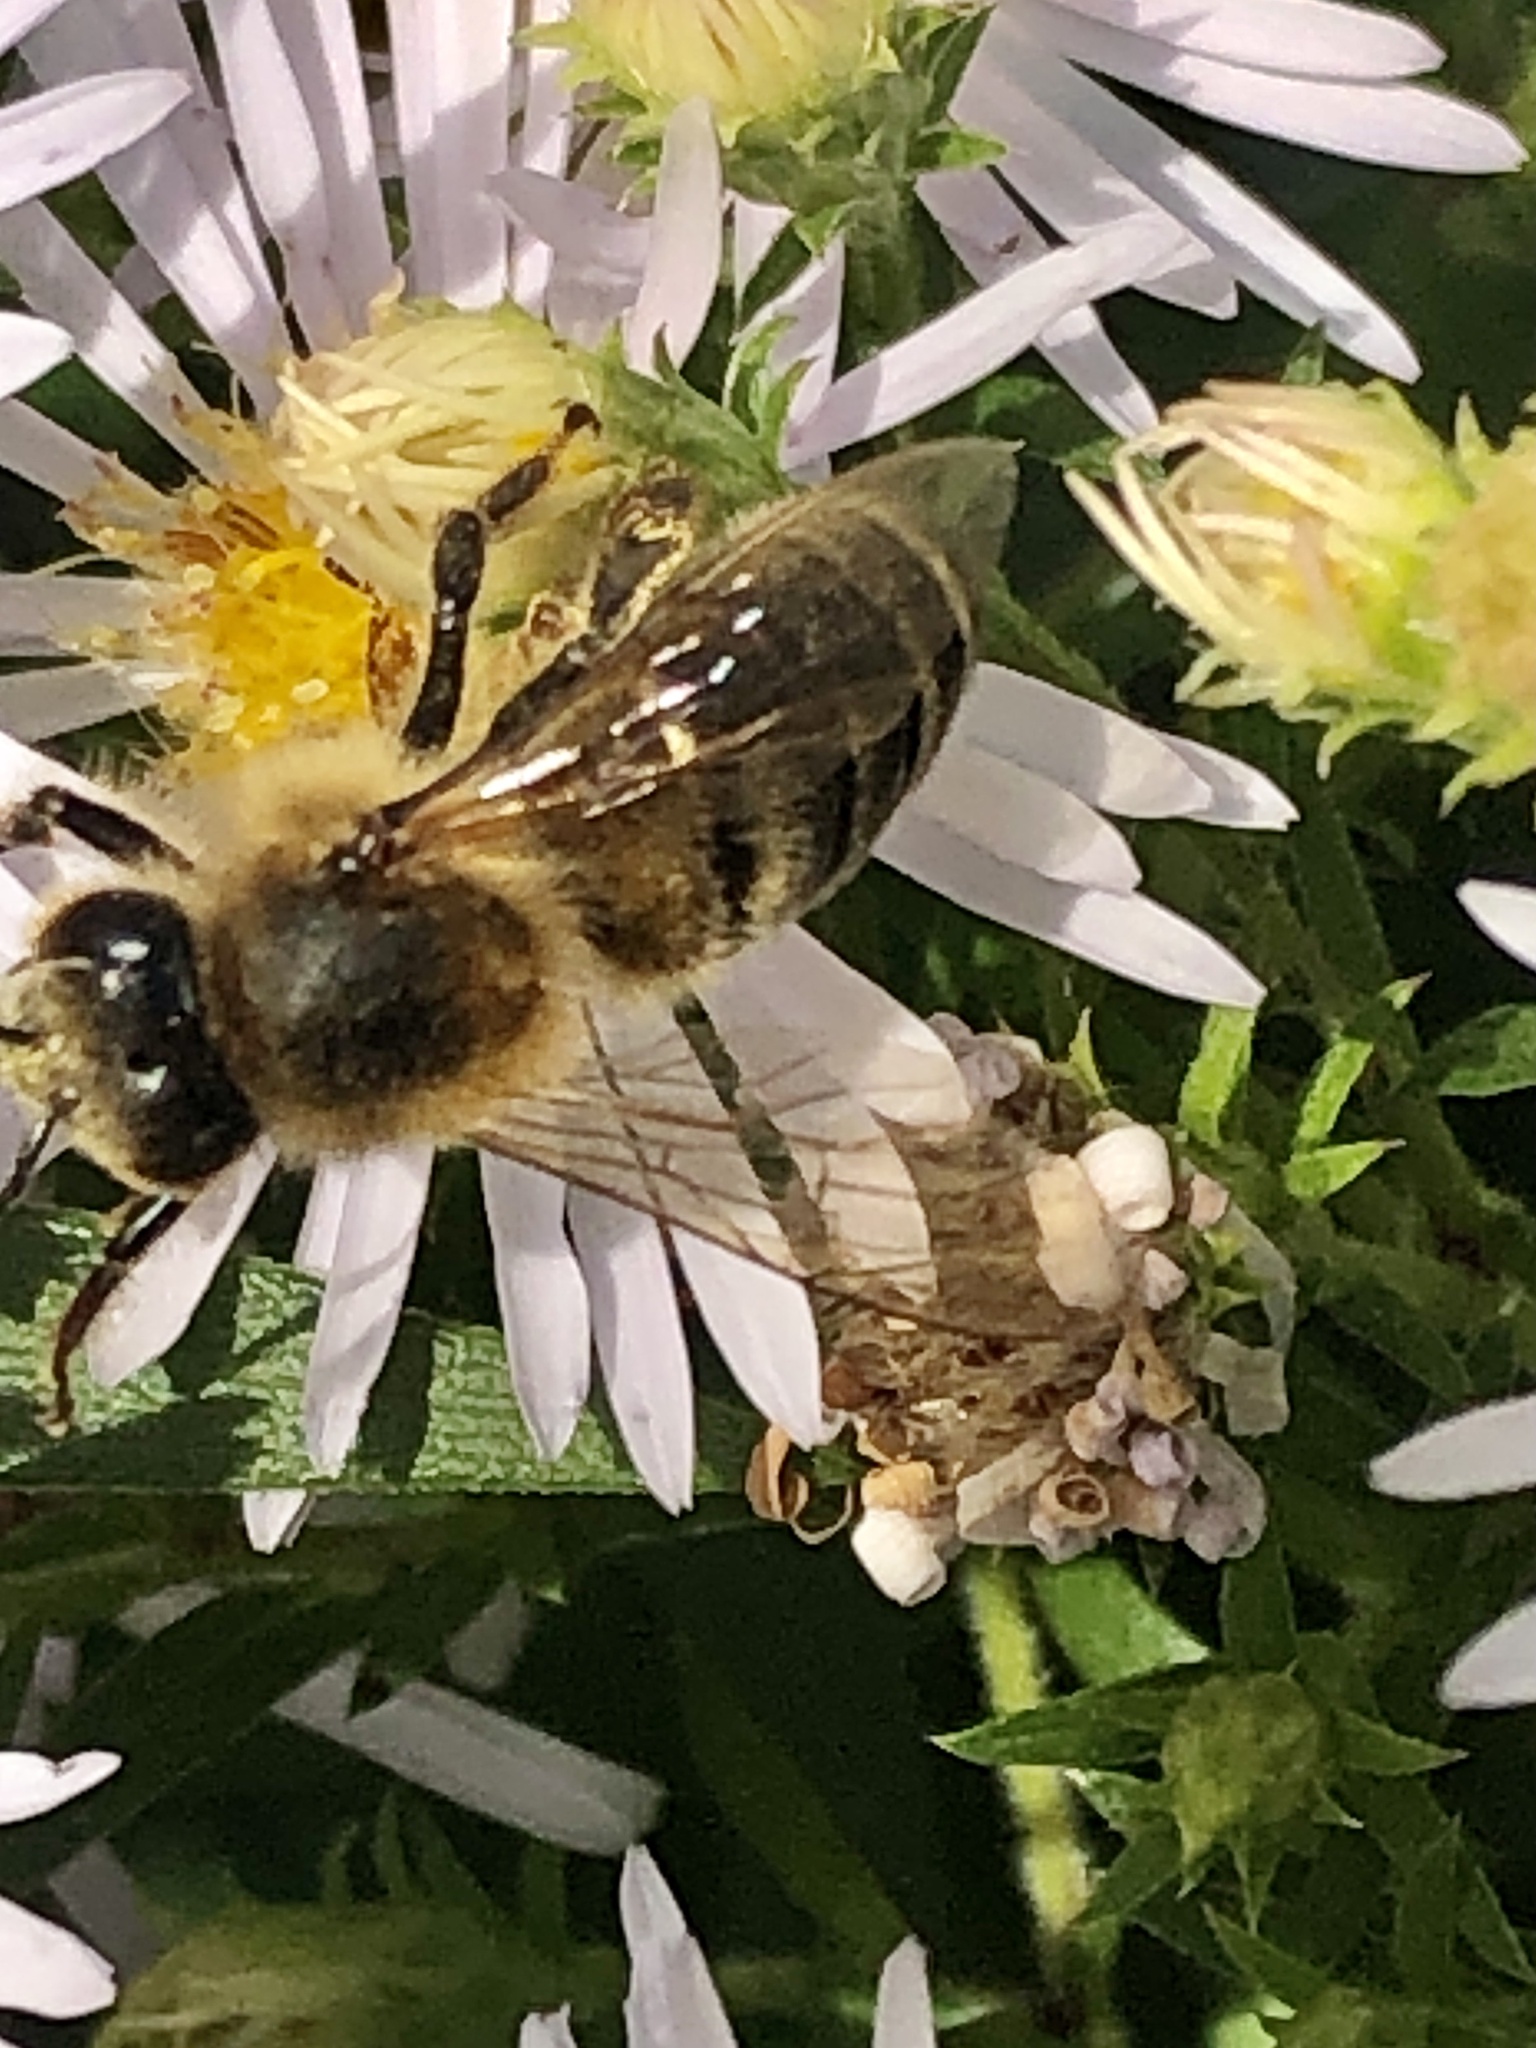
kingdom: Animalia
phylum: Arthropoda
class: Insecta
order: Hymenoptera
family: Apidae
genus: Apis
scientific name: Apis mellifera
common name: Honey bee
